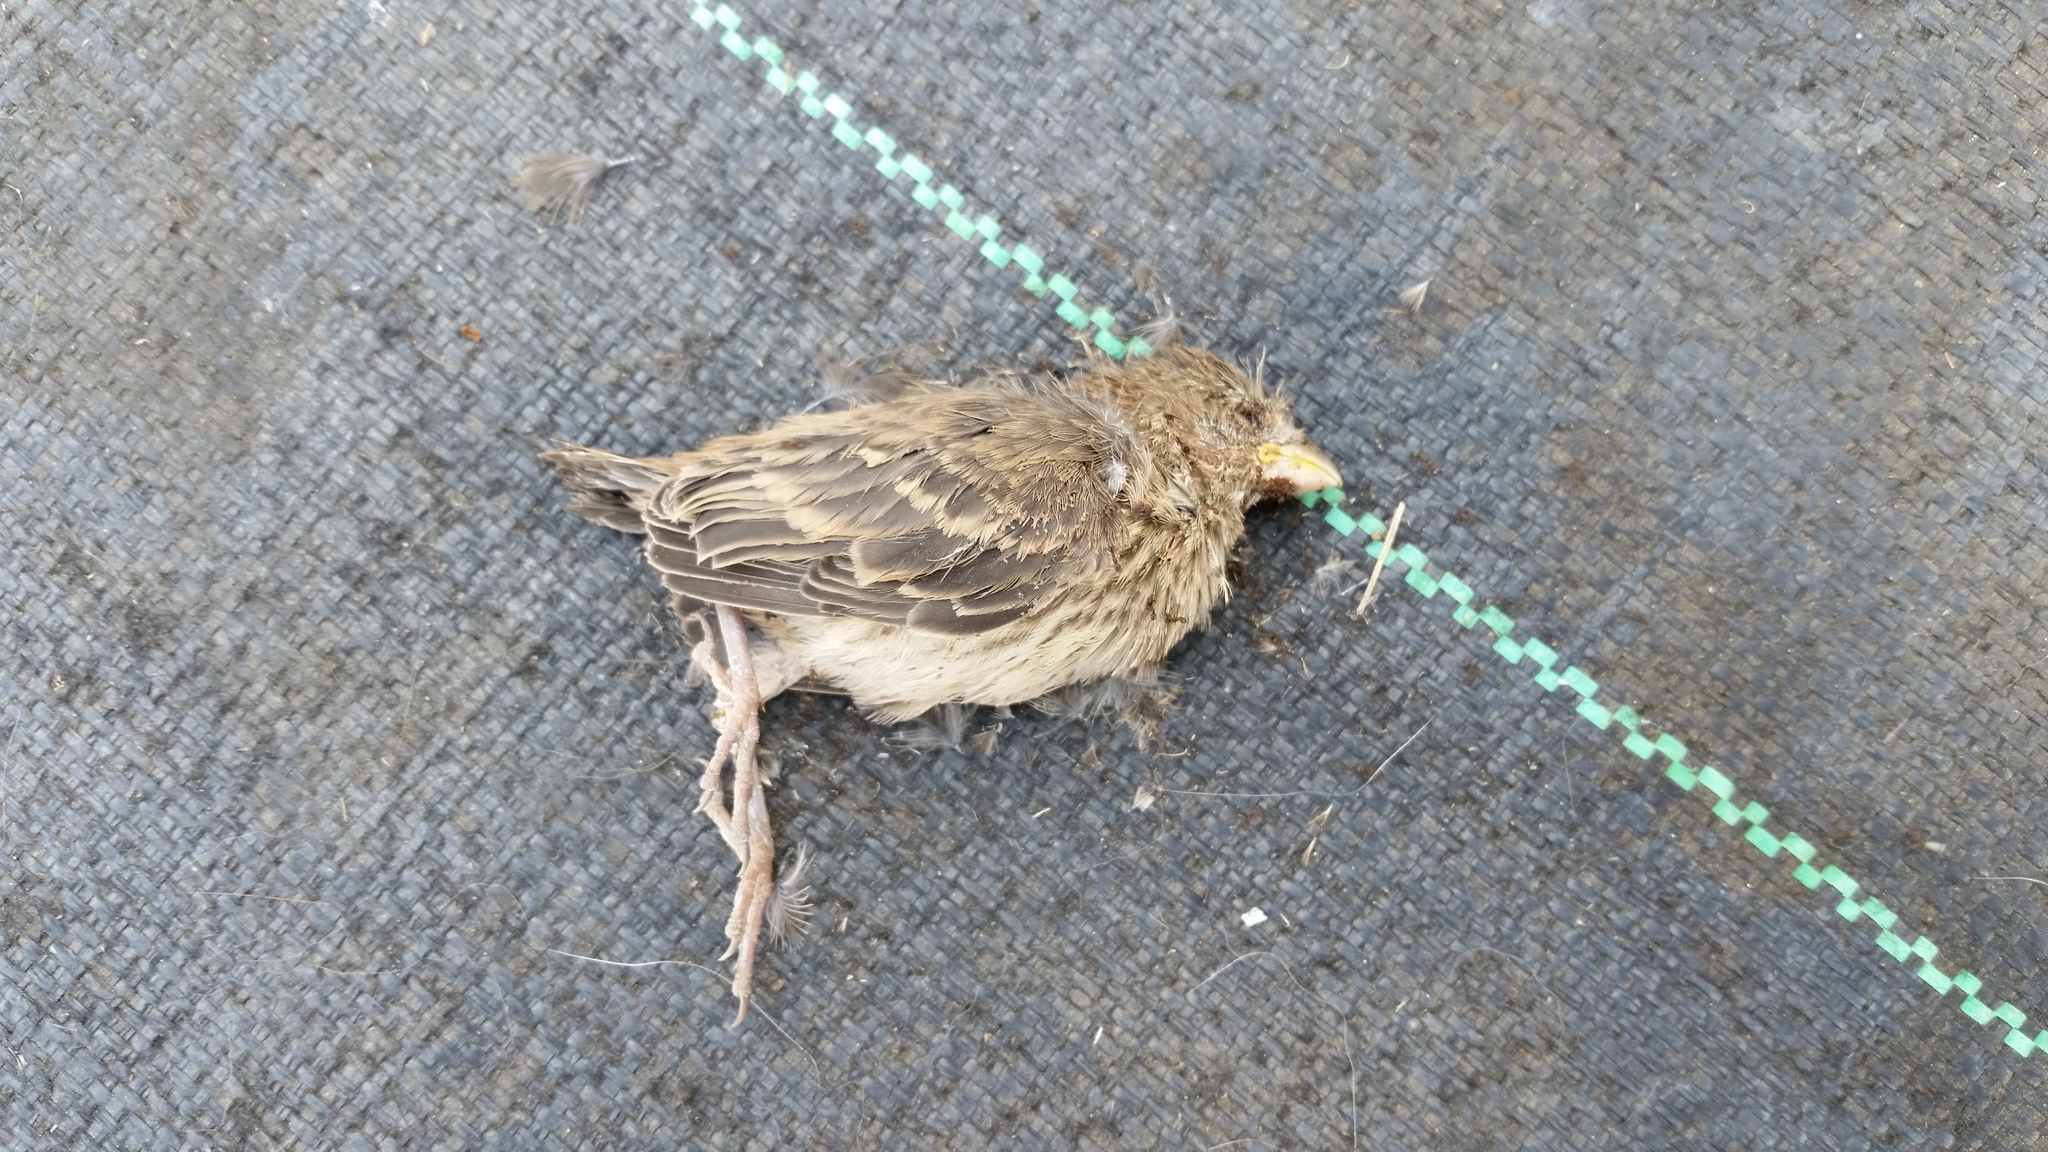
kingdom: Animalia
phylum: Chordata
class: Aves
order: Passeriformes
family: Fringillidae
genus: Haemorhous
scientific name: Haemorhous mexicanus
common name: House finch
